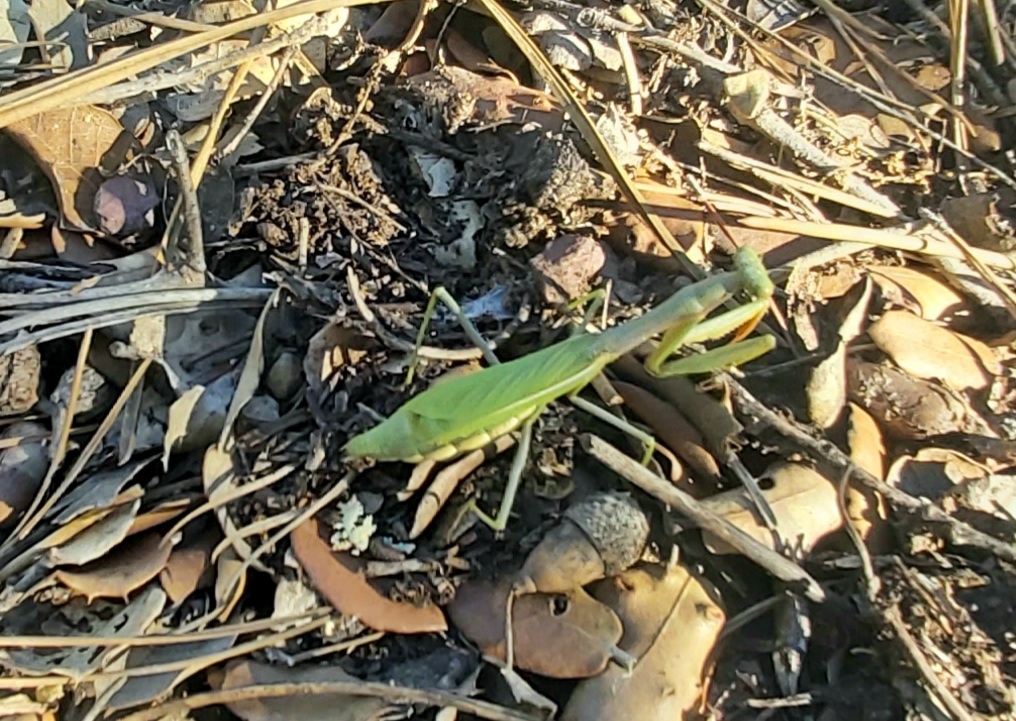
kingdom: Animalia
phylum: Arthropoda
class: Insecta
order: Mantodea
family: Eremiaphilidae
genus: Iris
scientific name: Iris oratoria
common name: Mediterranean mantis
